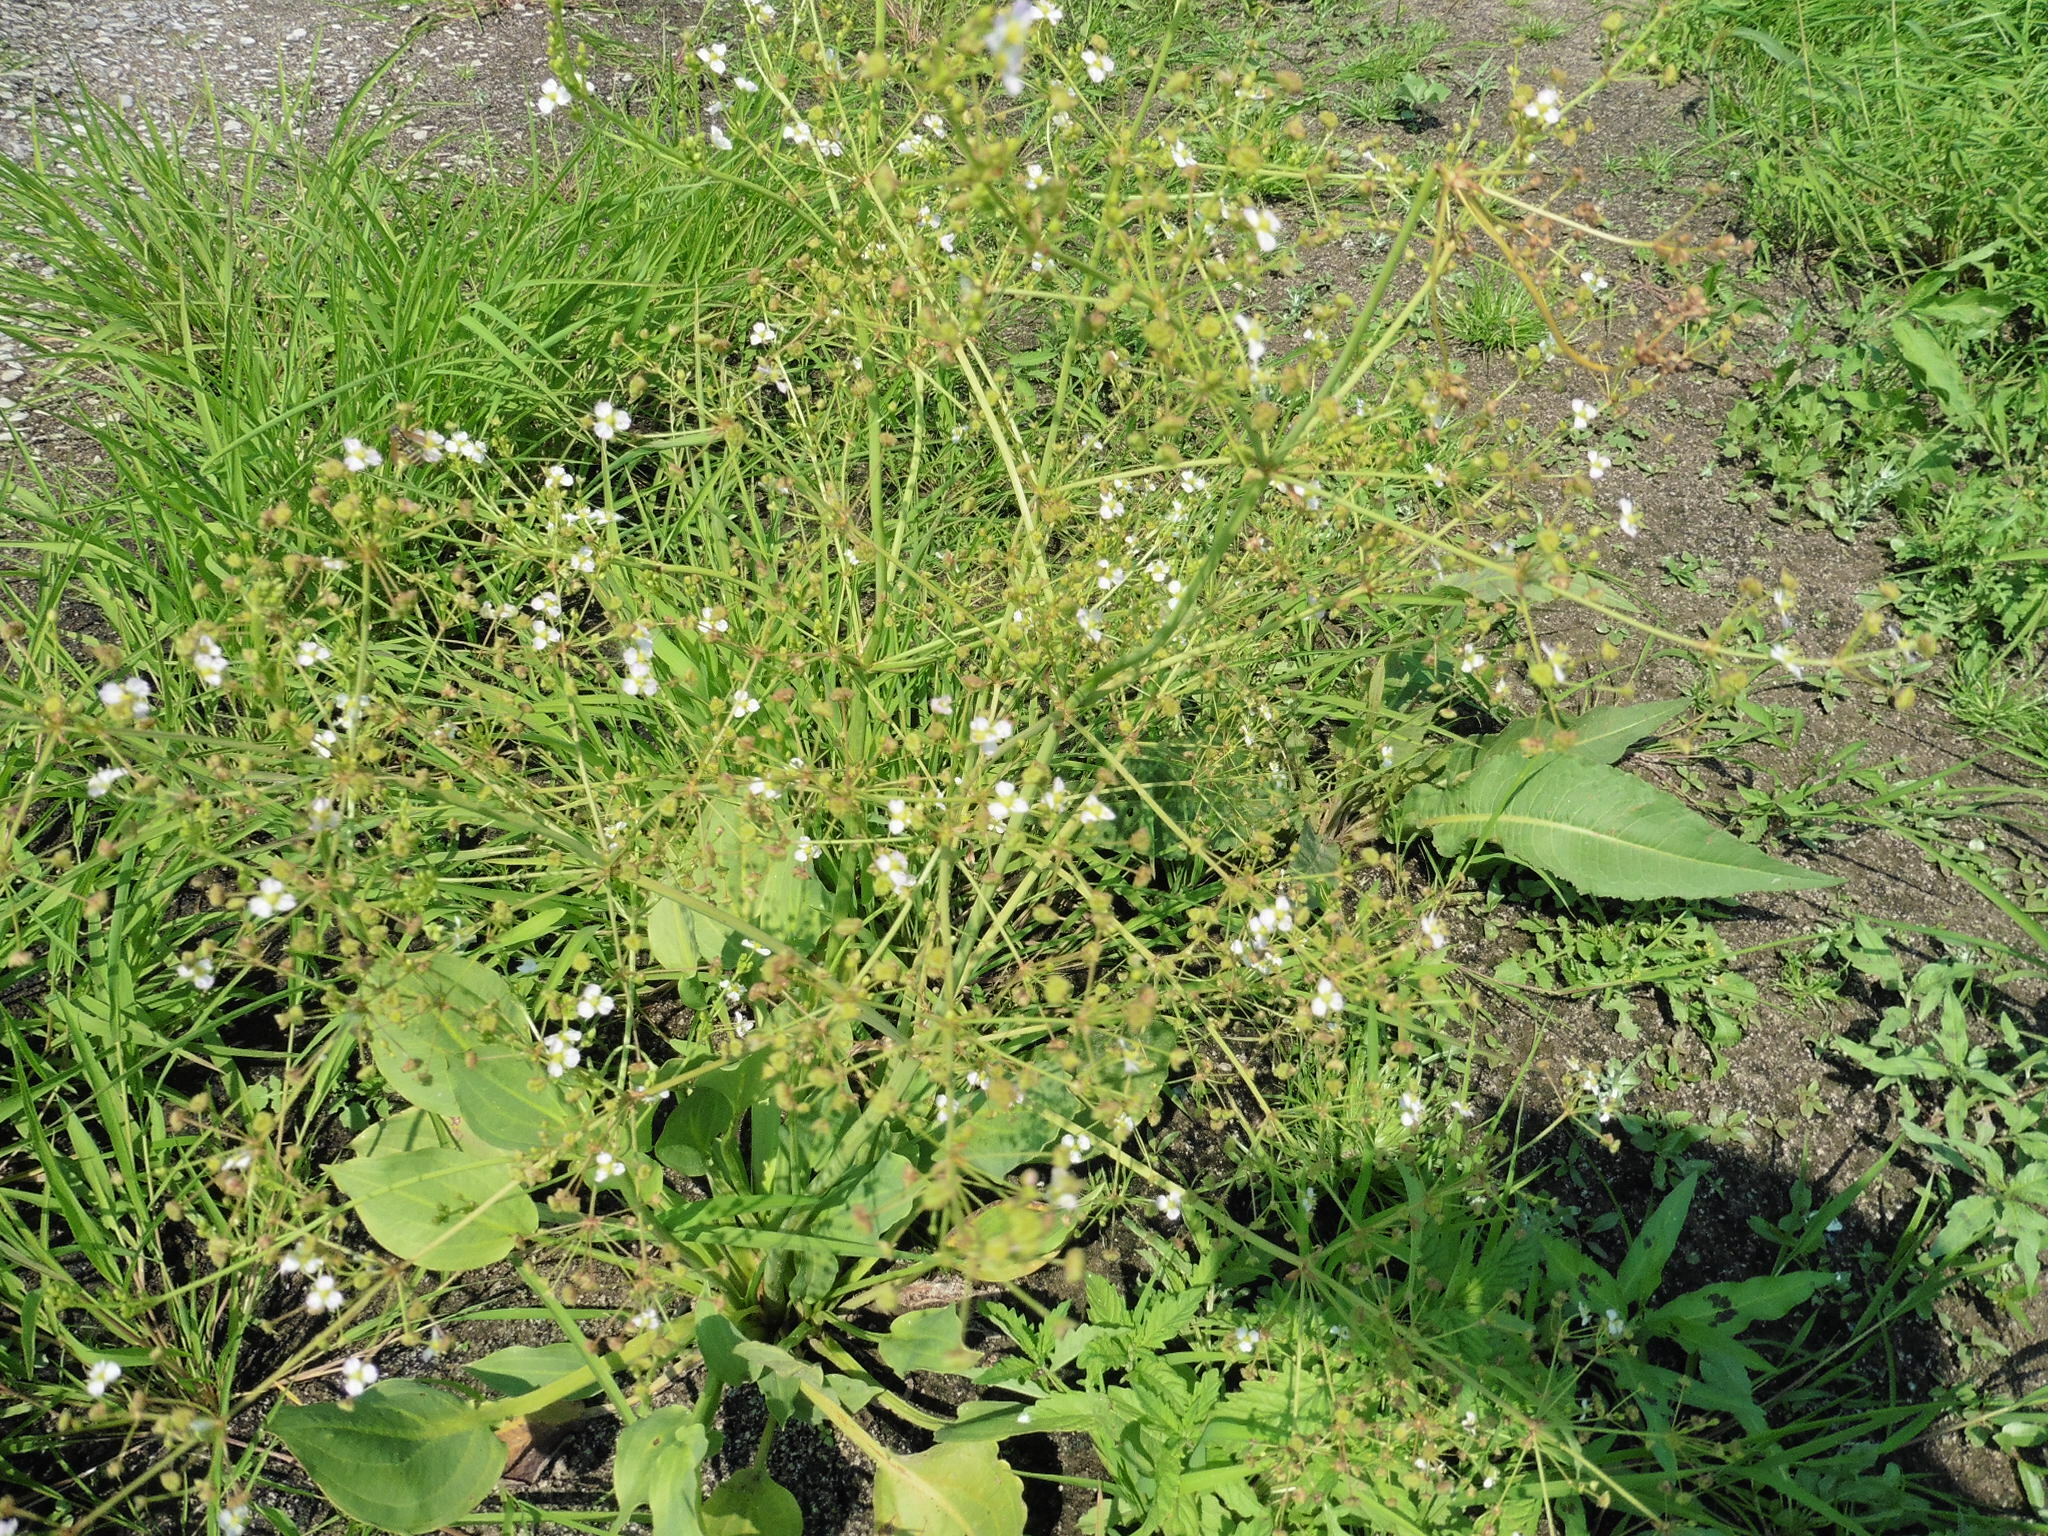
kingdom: Plantae
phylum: Tracheophyta
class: Liliopsida
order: Alismatales
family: Alismataceae
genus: Alisma
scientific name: Alisma plantago-aquatica
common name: Water-plantain
